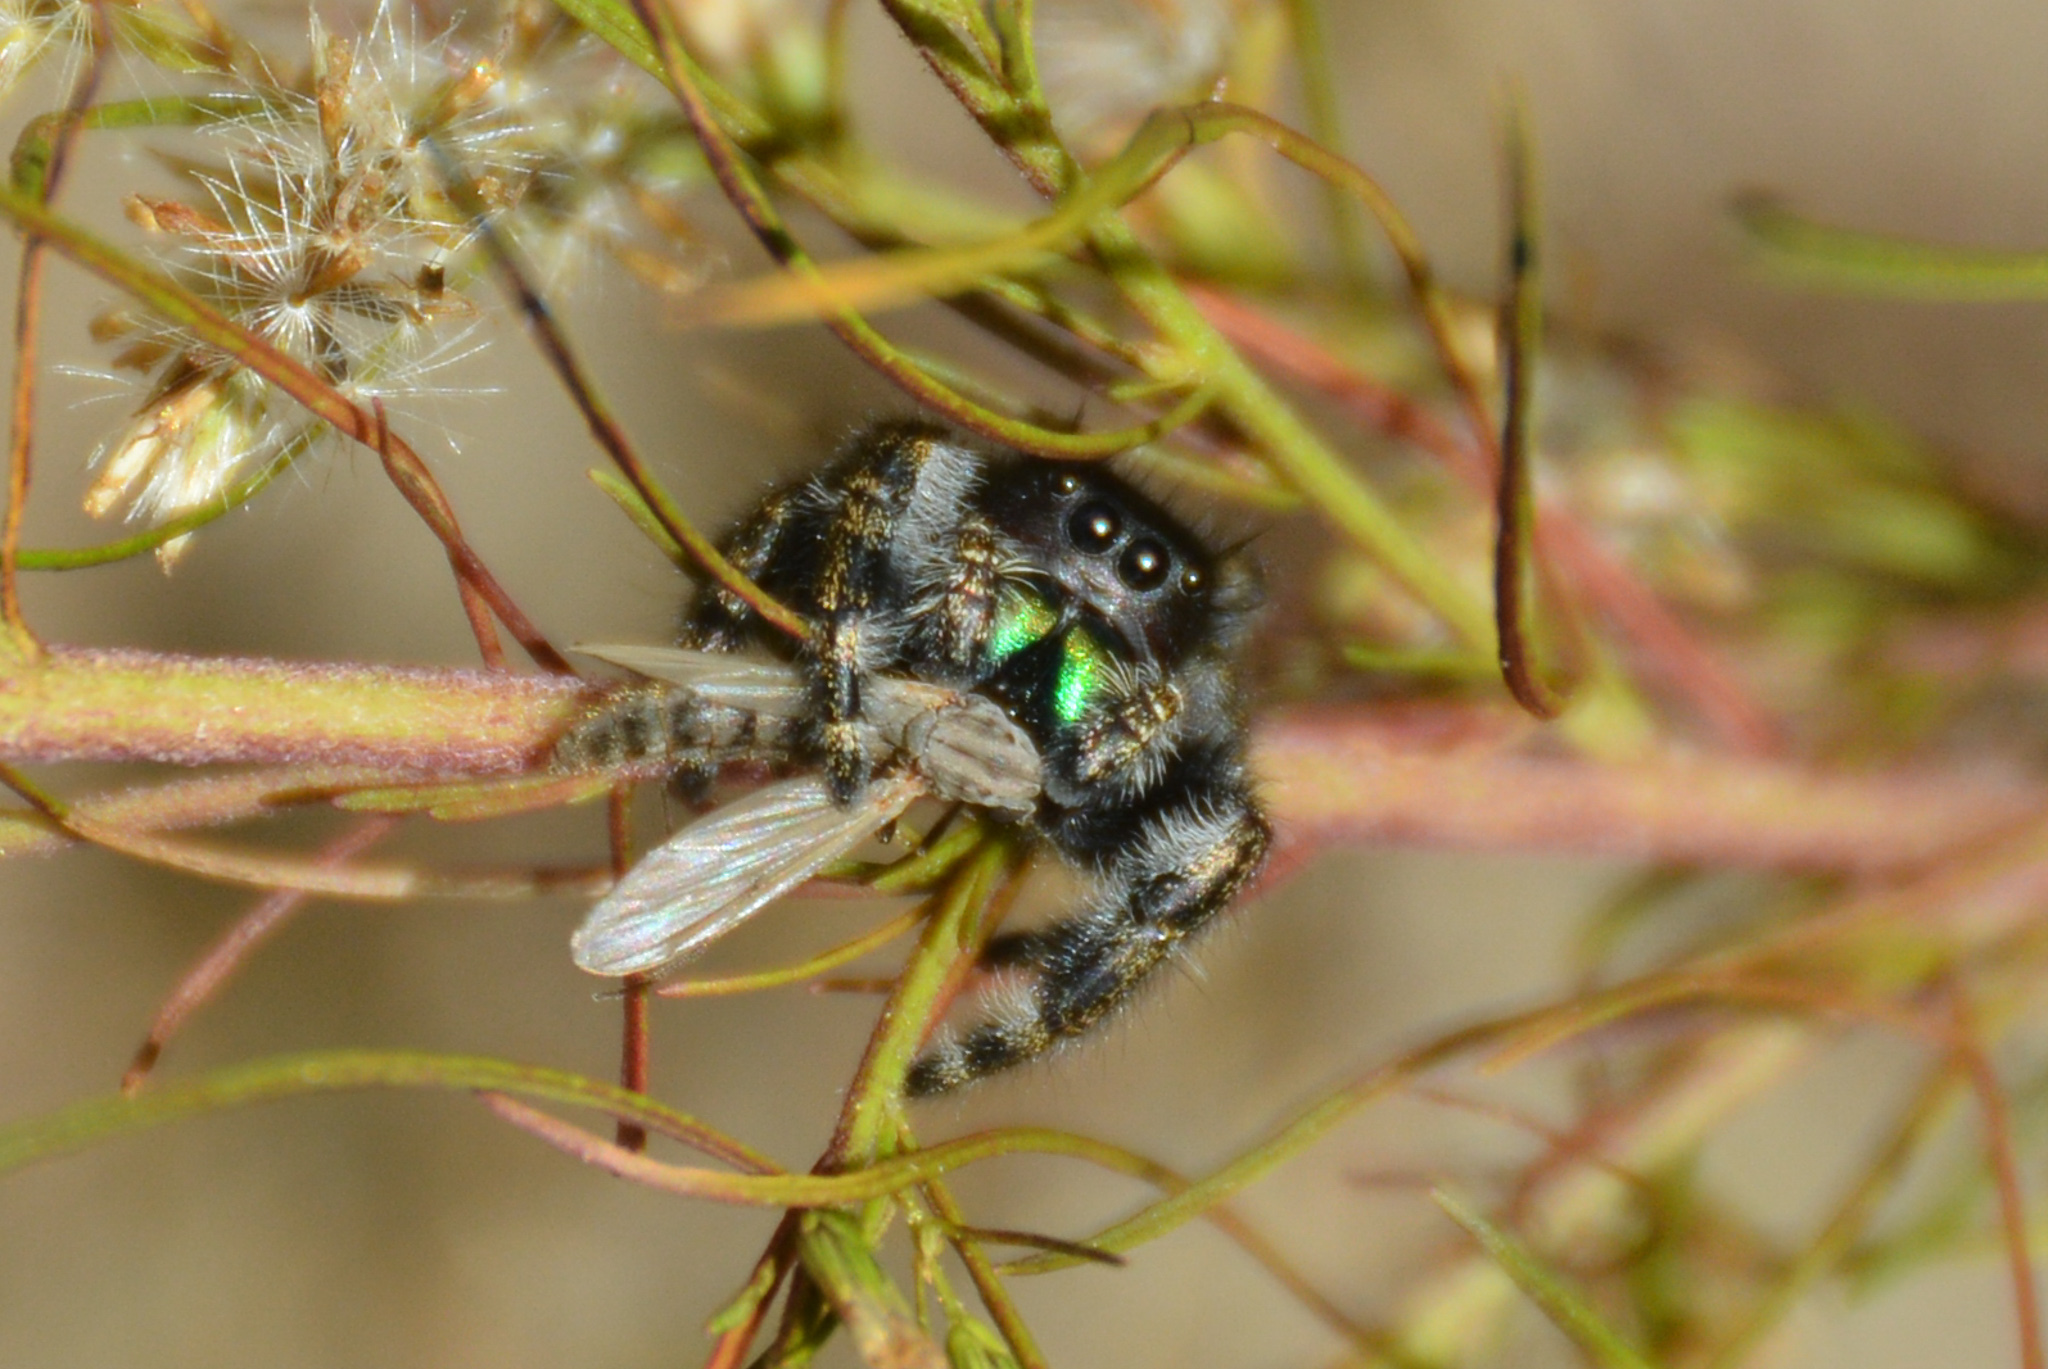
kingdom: Animalia
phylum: Arthropoda
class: Arachnida
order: Araneae
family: Salticidae
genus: Phidippus
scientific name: Phidippus audax
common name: Bold jumper
